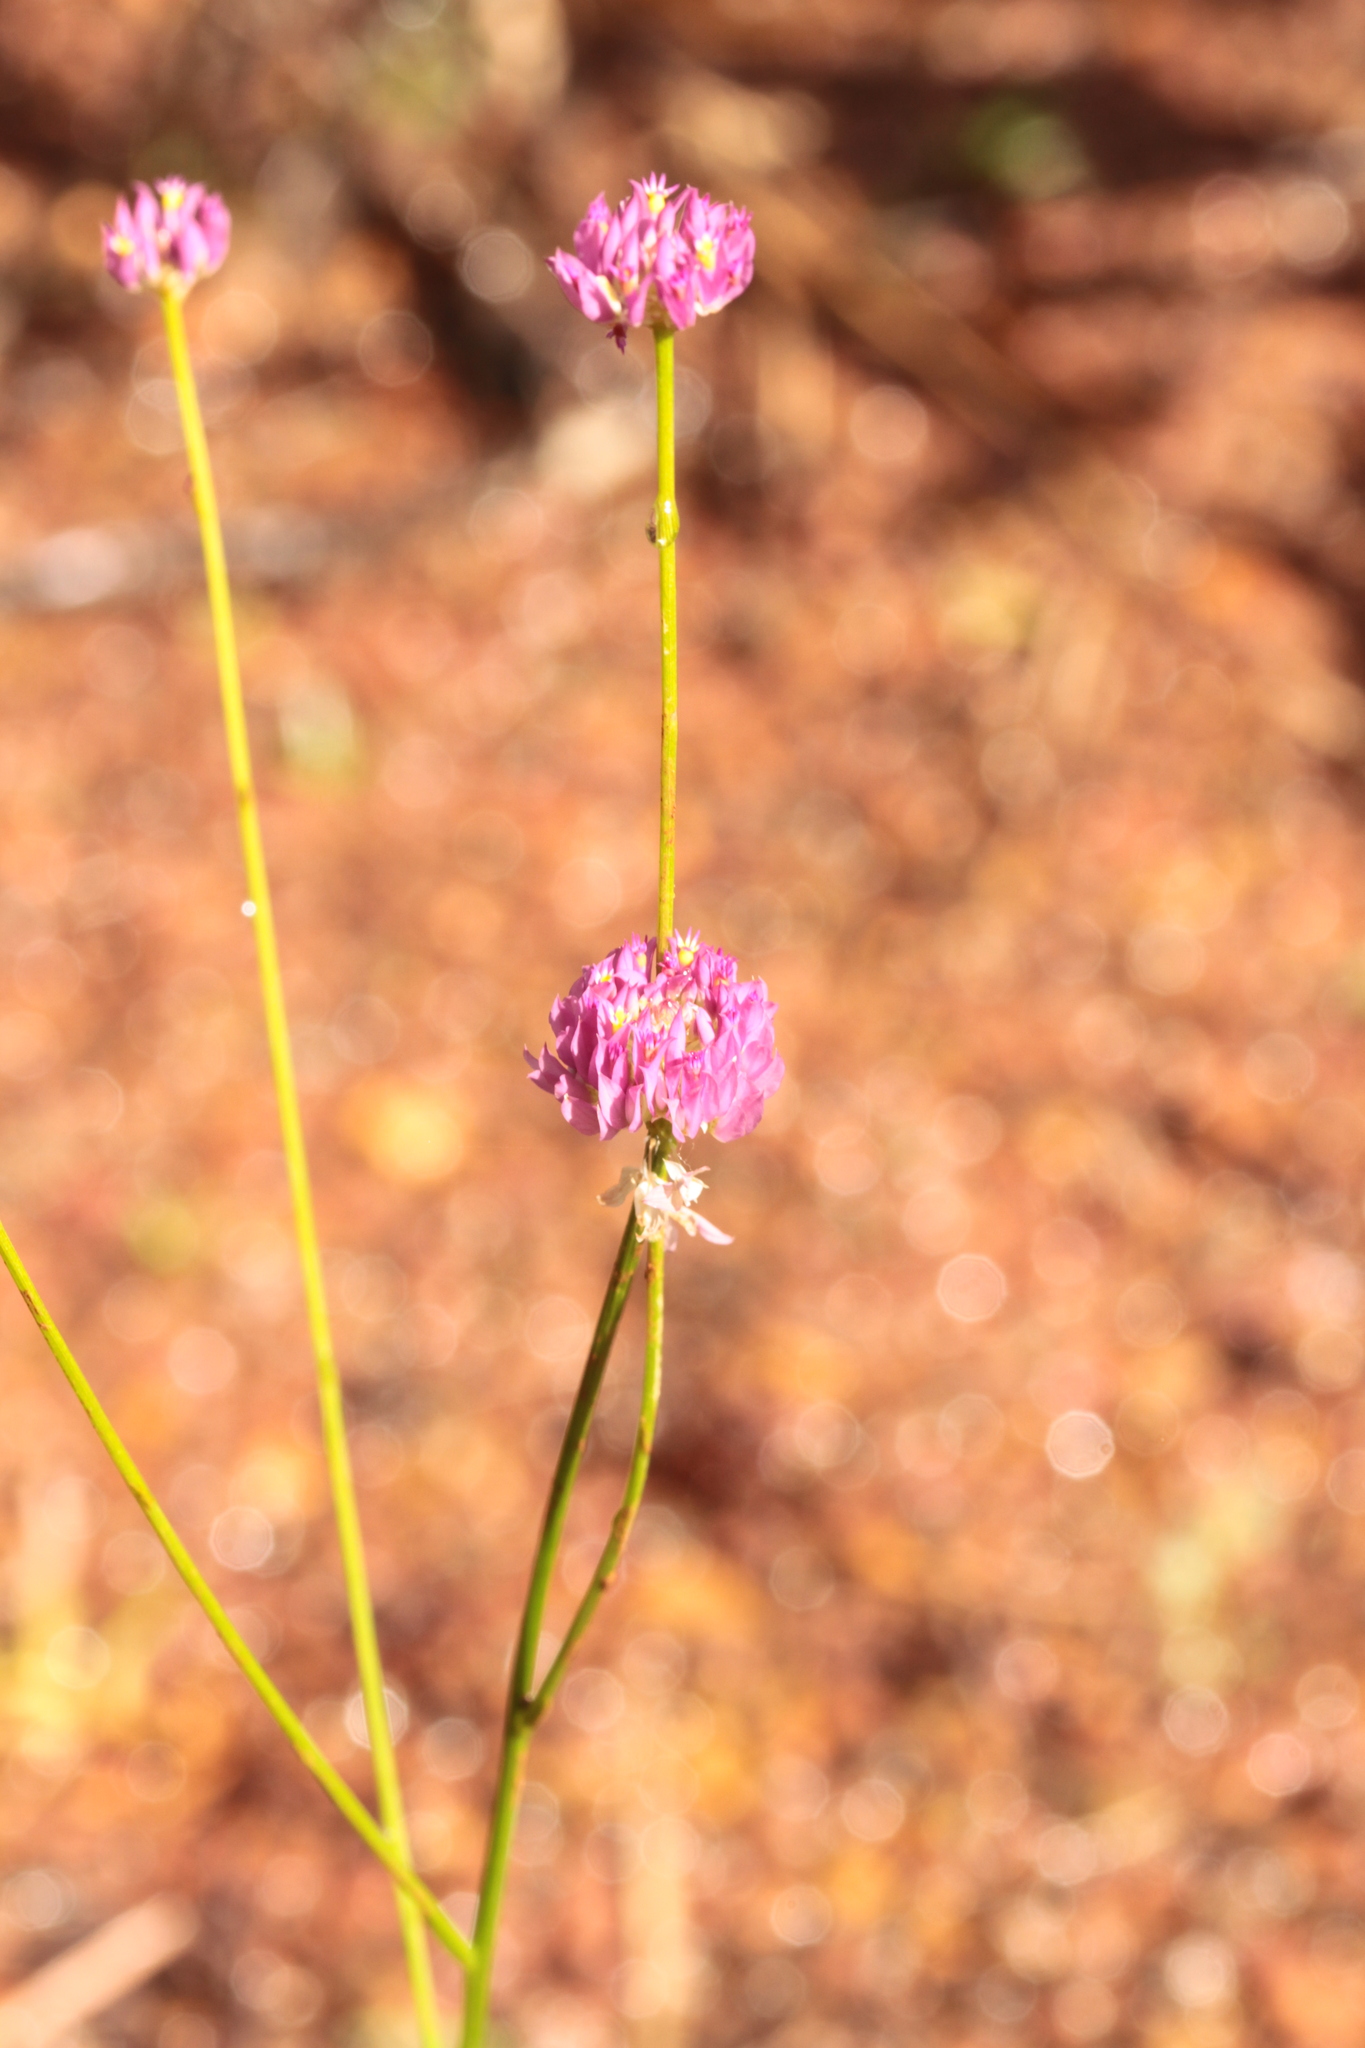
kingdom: Plantae
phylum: Tracheophyta
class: Magnoliopsida
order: Fabales
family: Polygalaceae
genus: Polygala
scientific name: Polygala longicaulis
